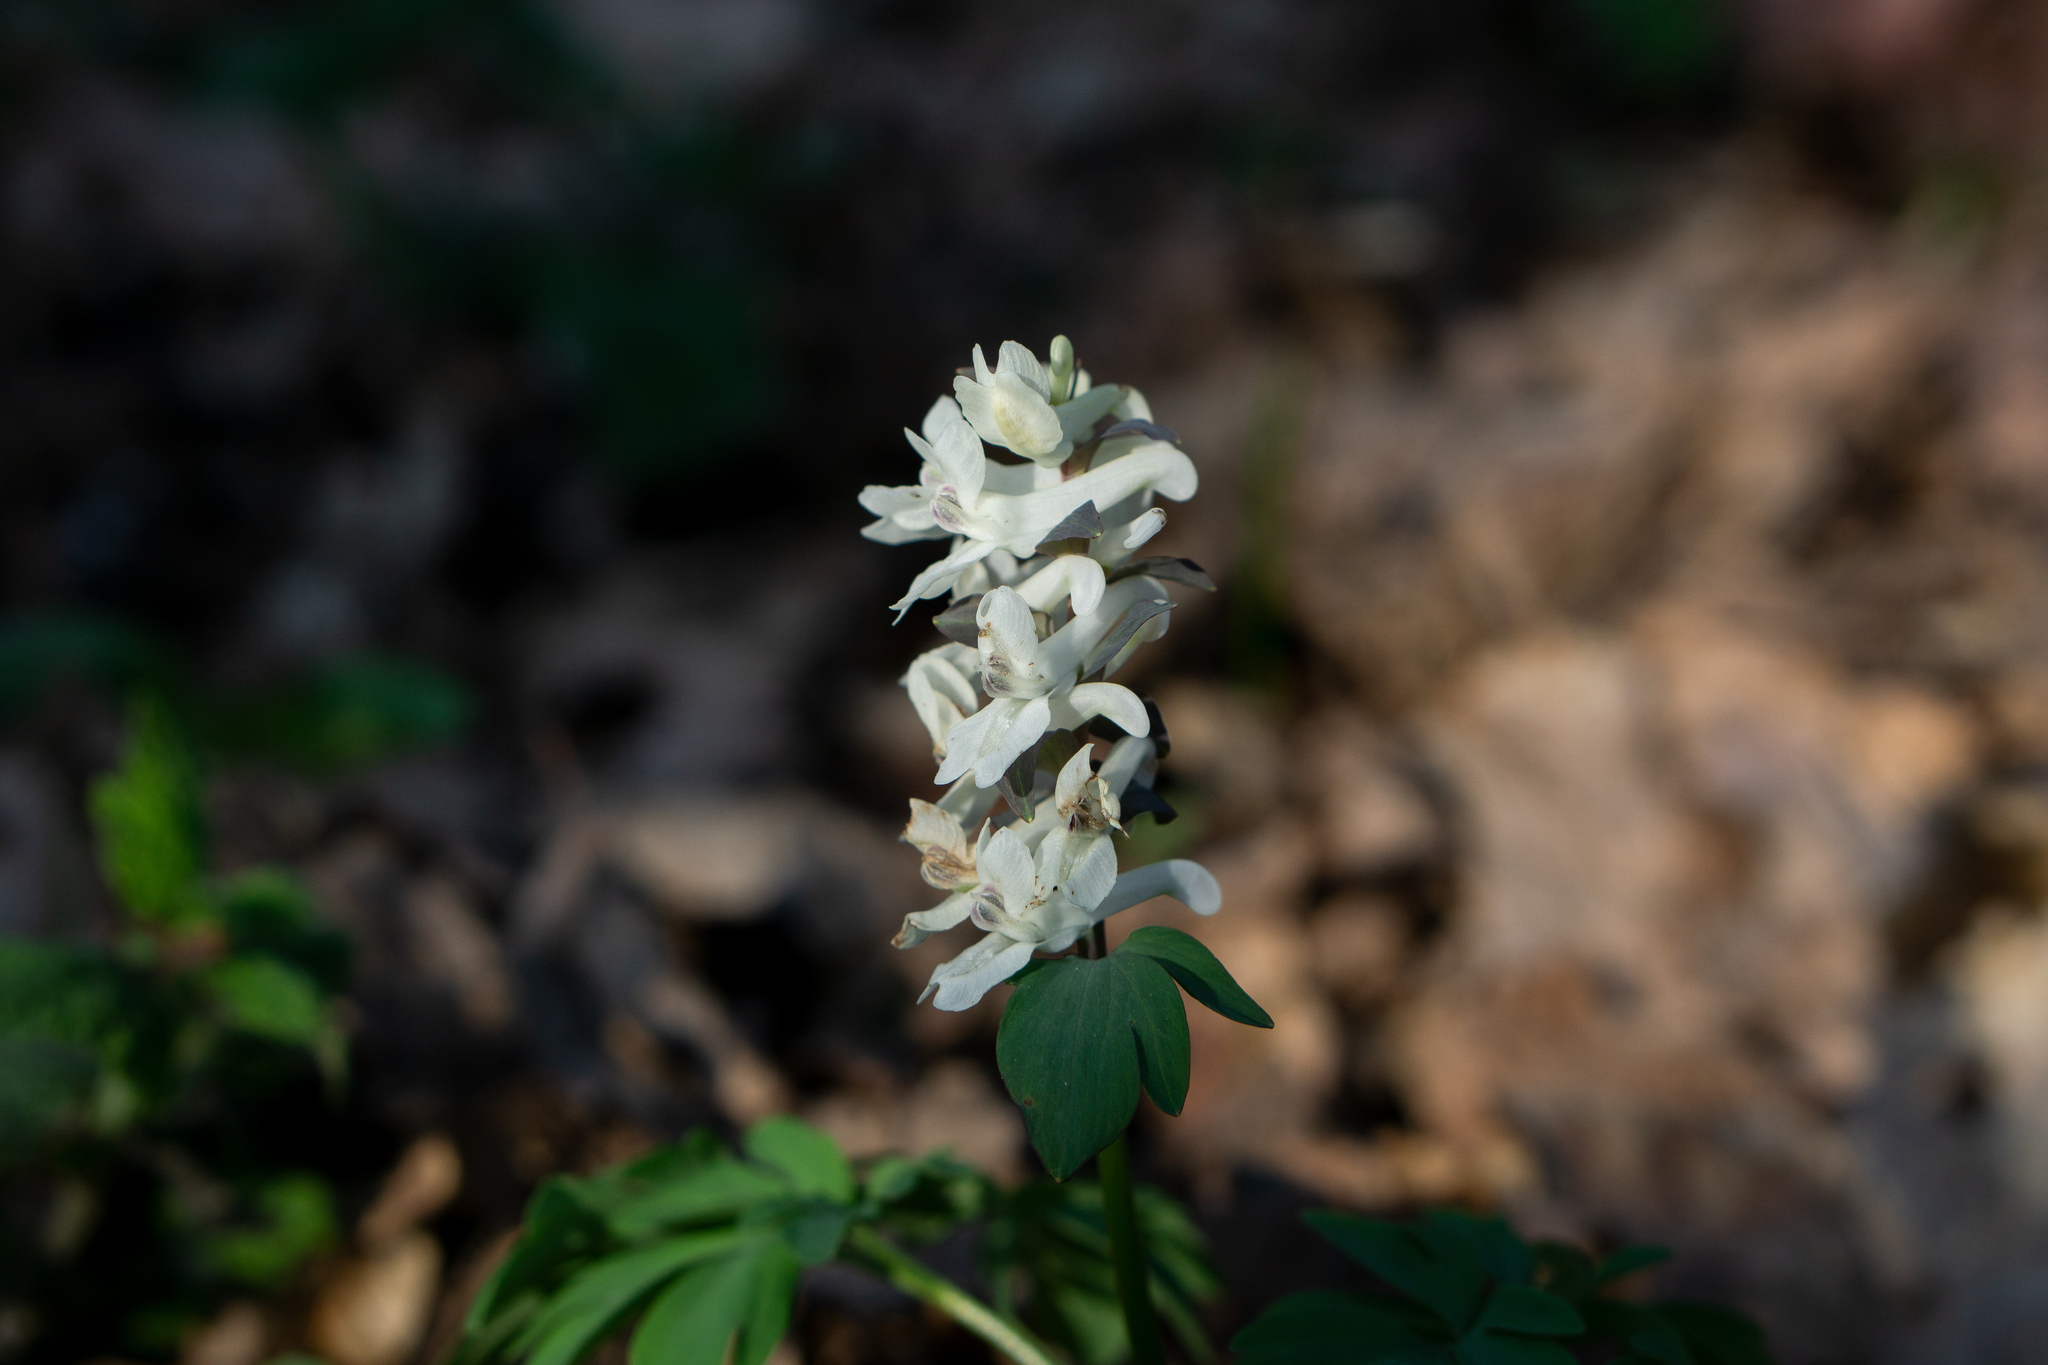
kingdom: Plantae
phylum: Tracheophyta
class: Magnoliopsida
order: Ranunculales
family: Papaveraceae
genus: Corydalis
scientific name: Corydalis cava
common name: Hollowroot
